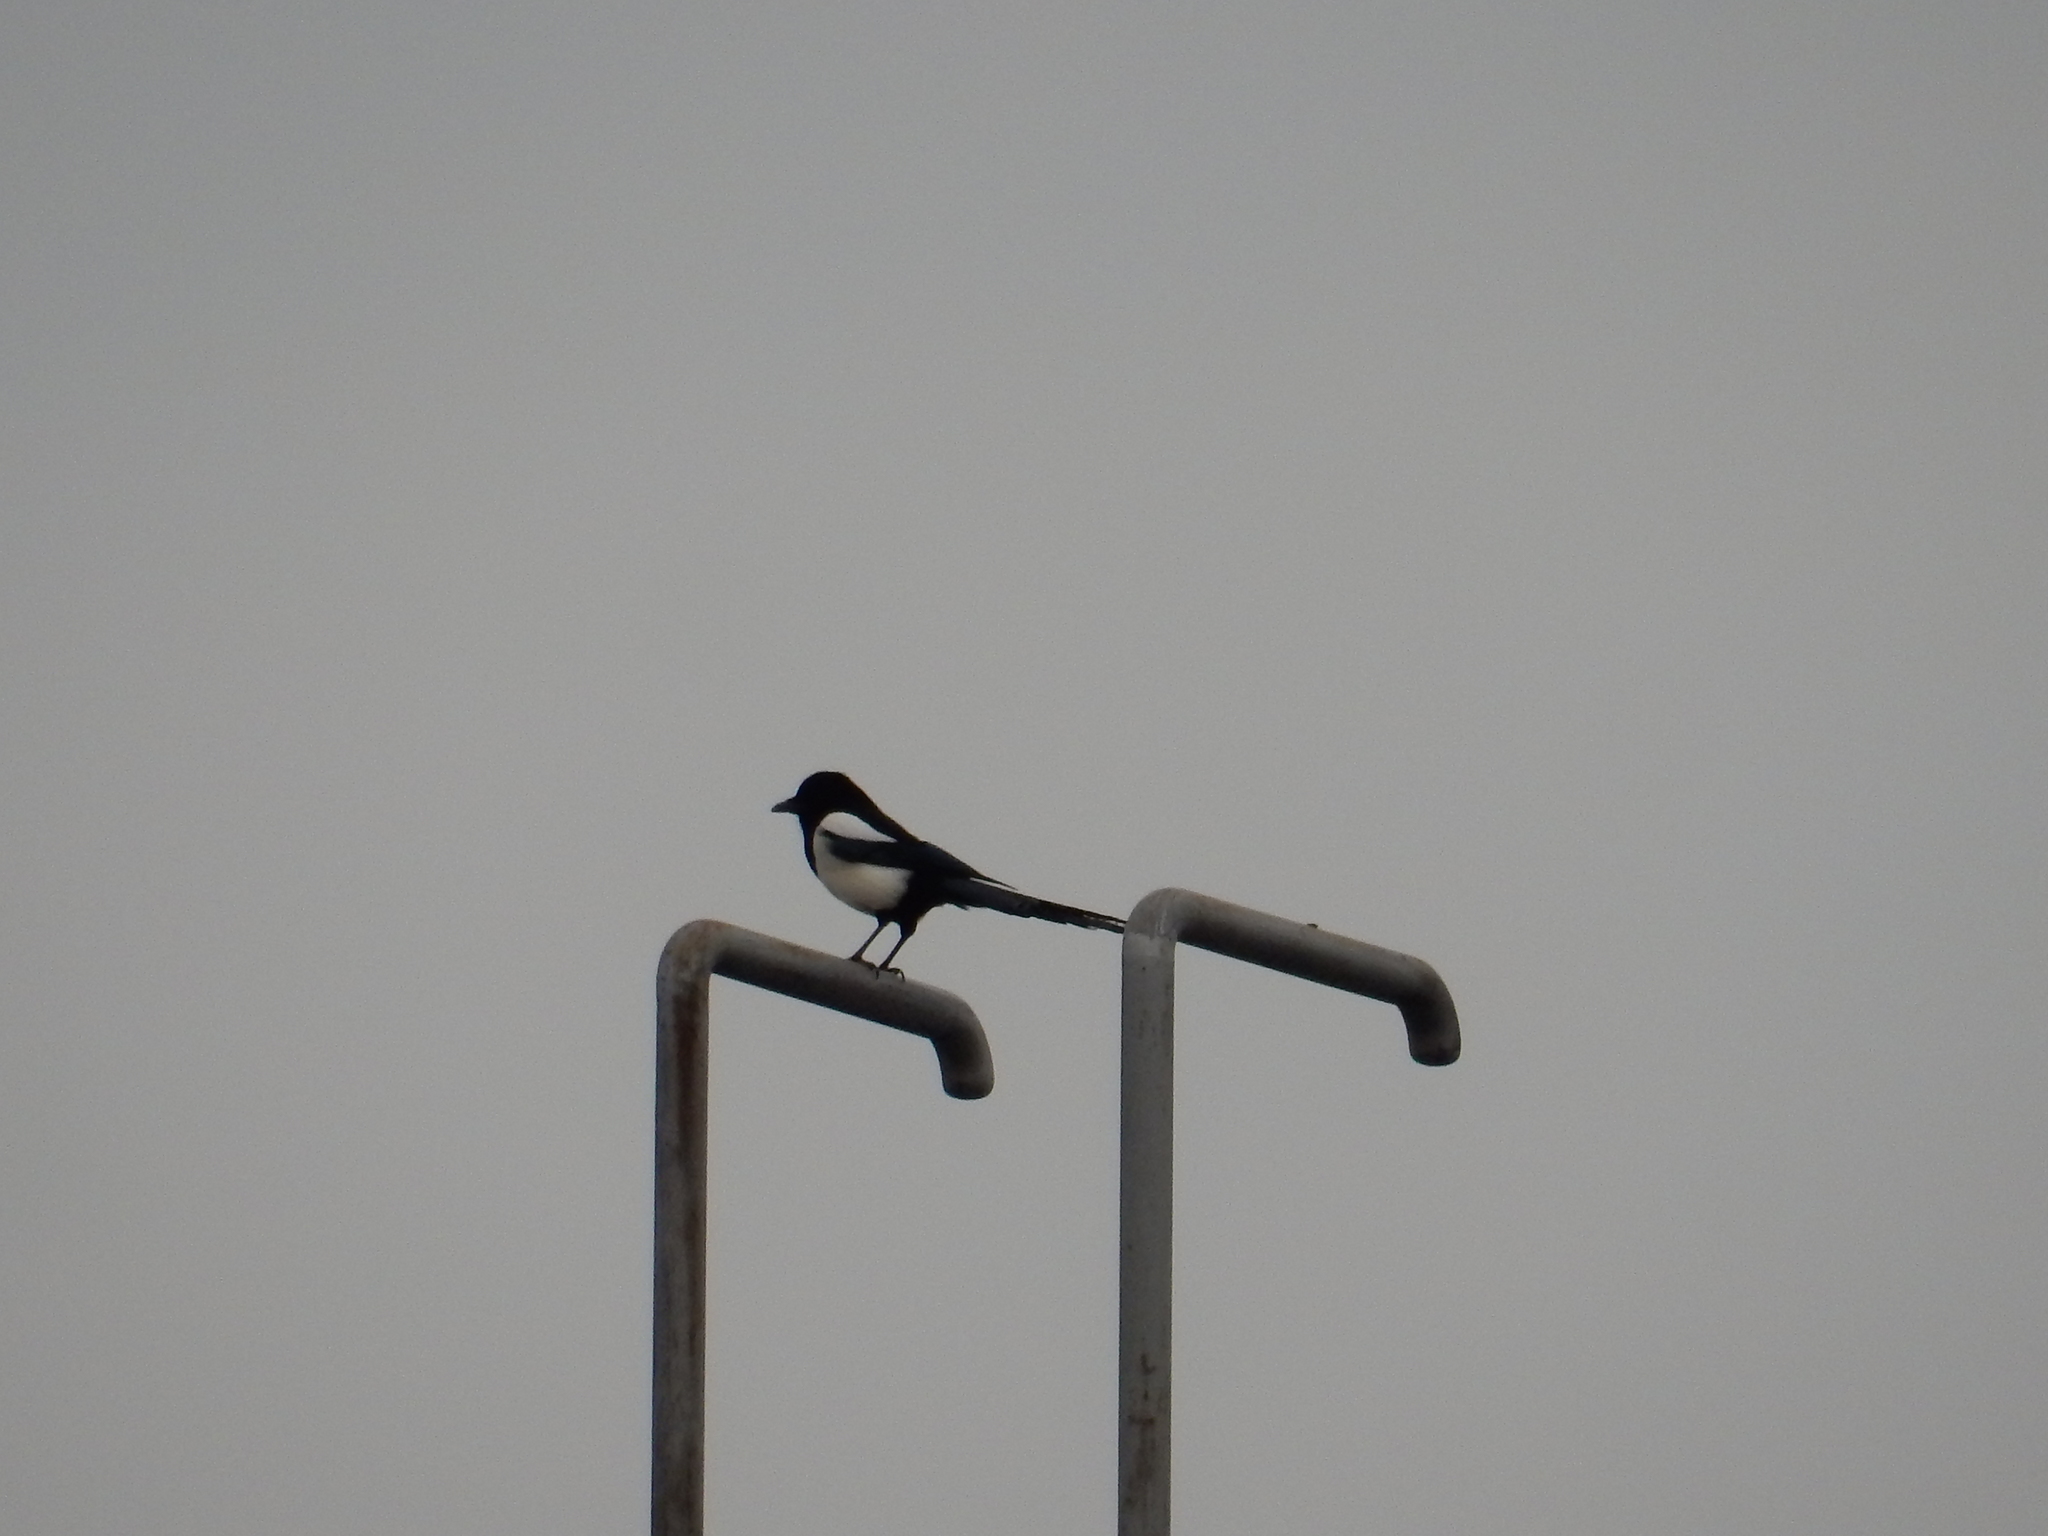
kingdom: Animalia
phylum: Chordata
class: Aves
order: Passeriformes
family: Corvidae
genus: Pica
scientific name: Pica pica
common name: Eurasian magpie
